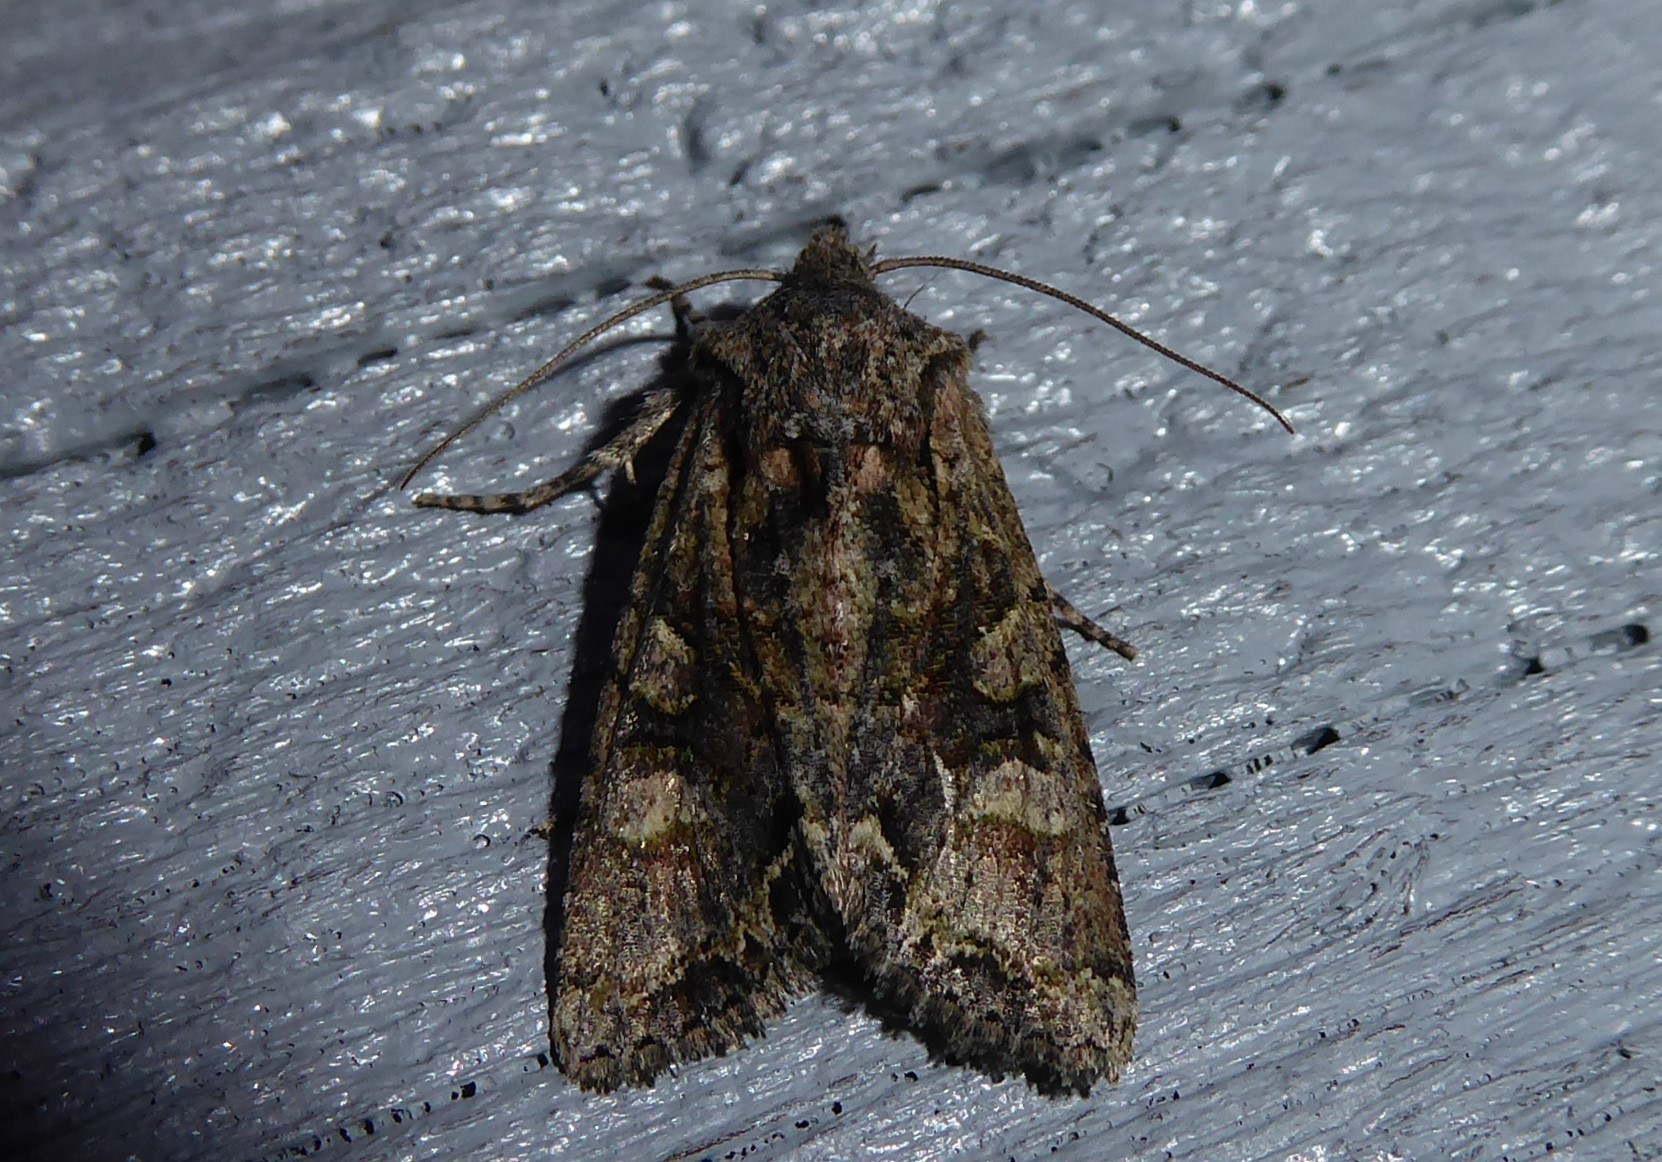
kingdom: Animalia
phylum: Arthropoda
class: Insecta
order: Lepidoptera
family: Noctuidae
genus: Ichneutica
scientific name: Ichneutica skelloni
